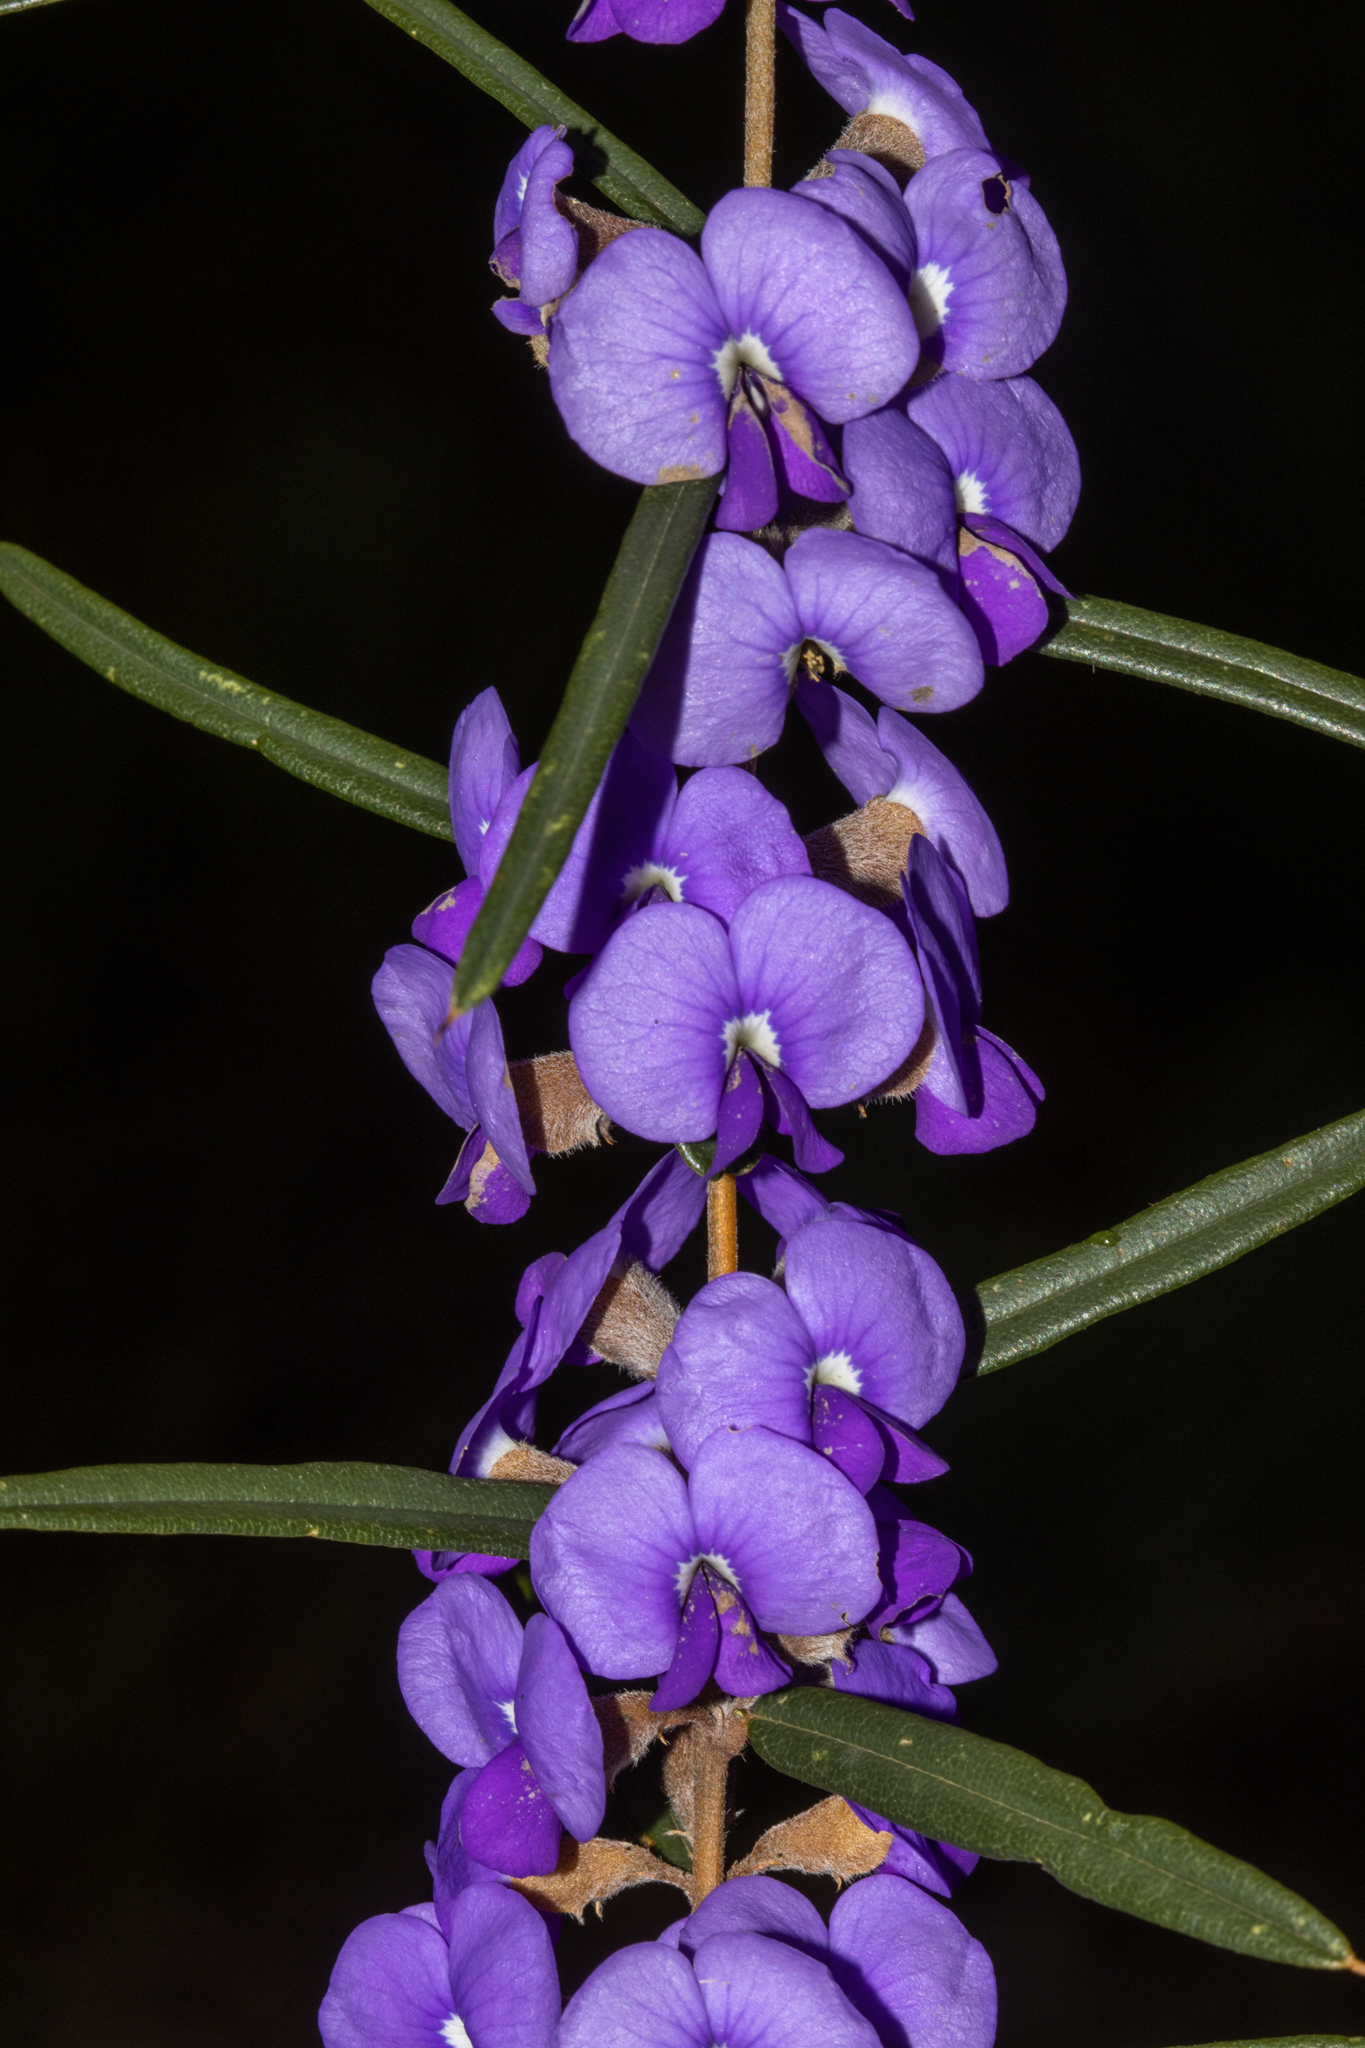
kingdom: Plantae
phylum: Tracheophyta
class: Magnoliopsida
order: Fabales
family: Fabaceae
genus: Hovea
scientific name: Hovea trisperma
